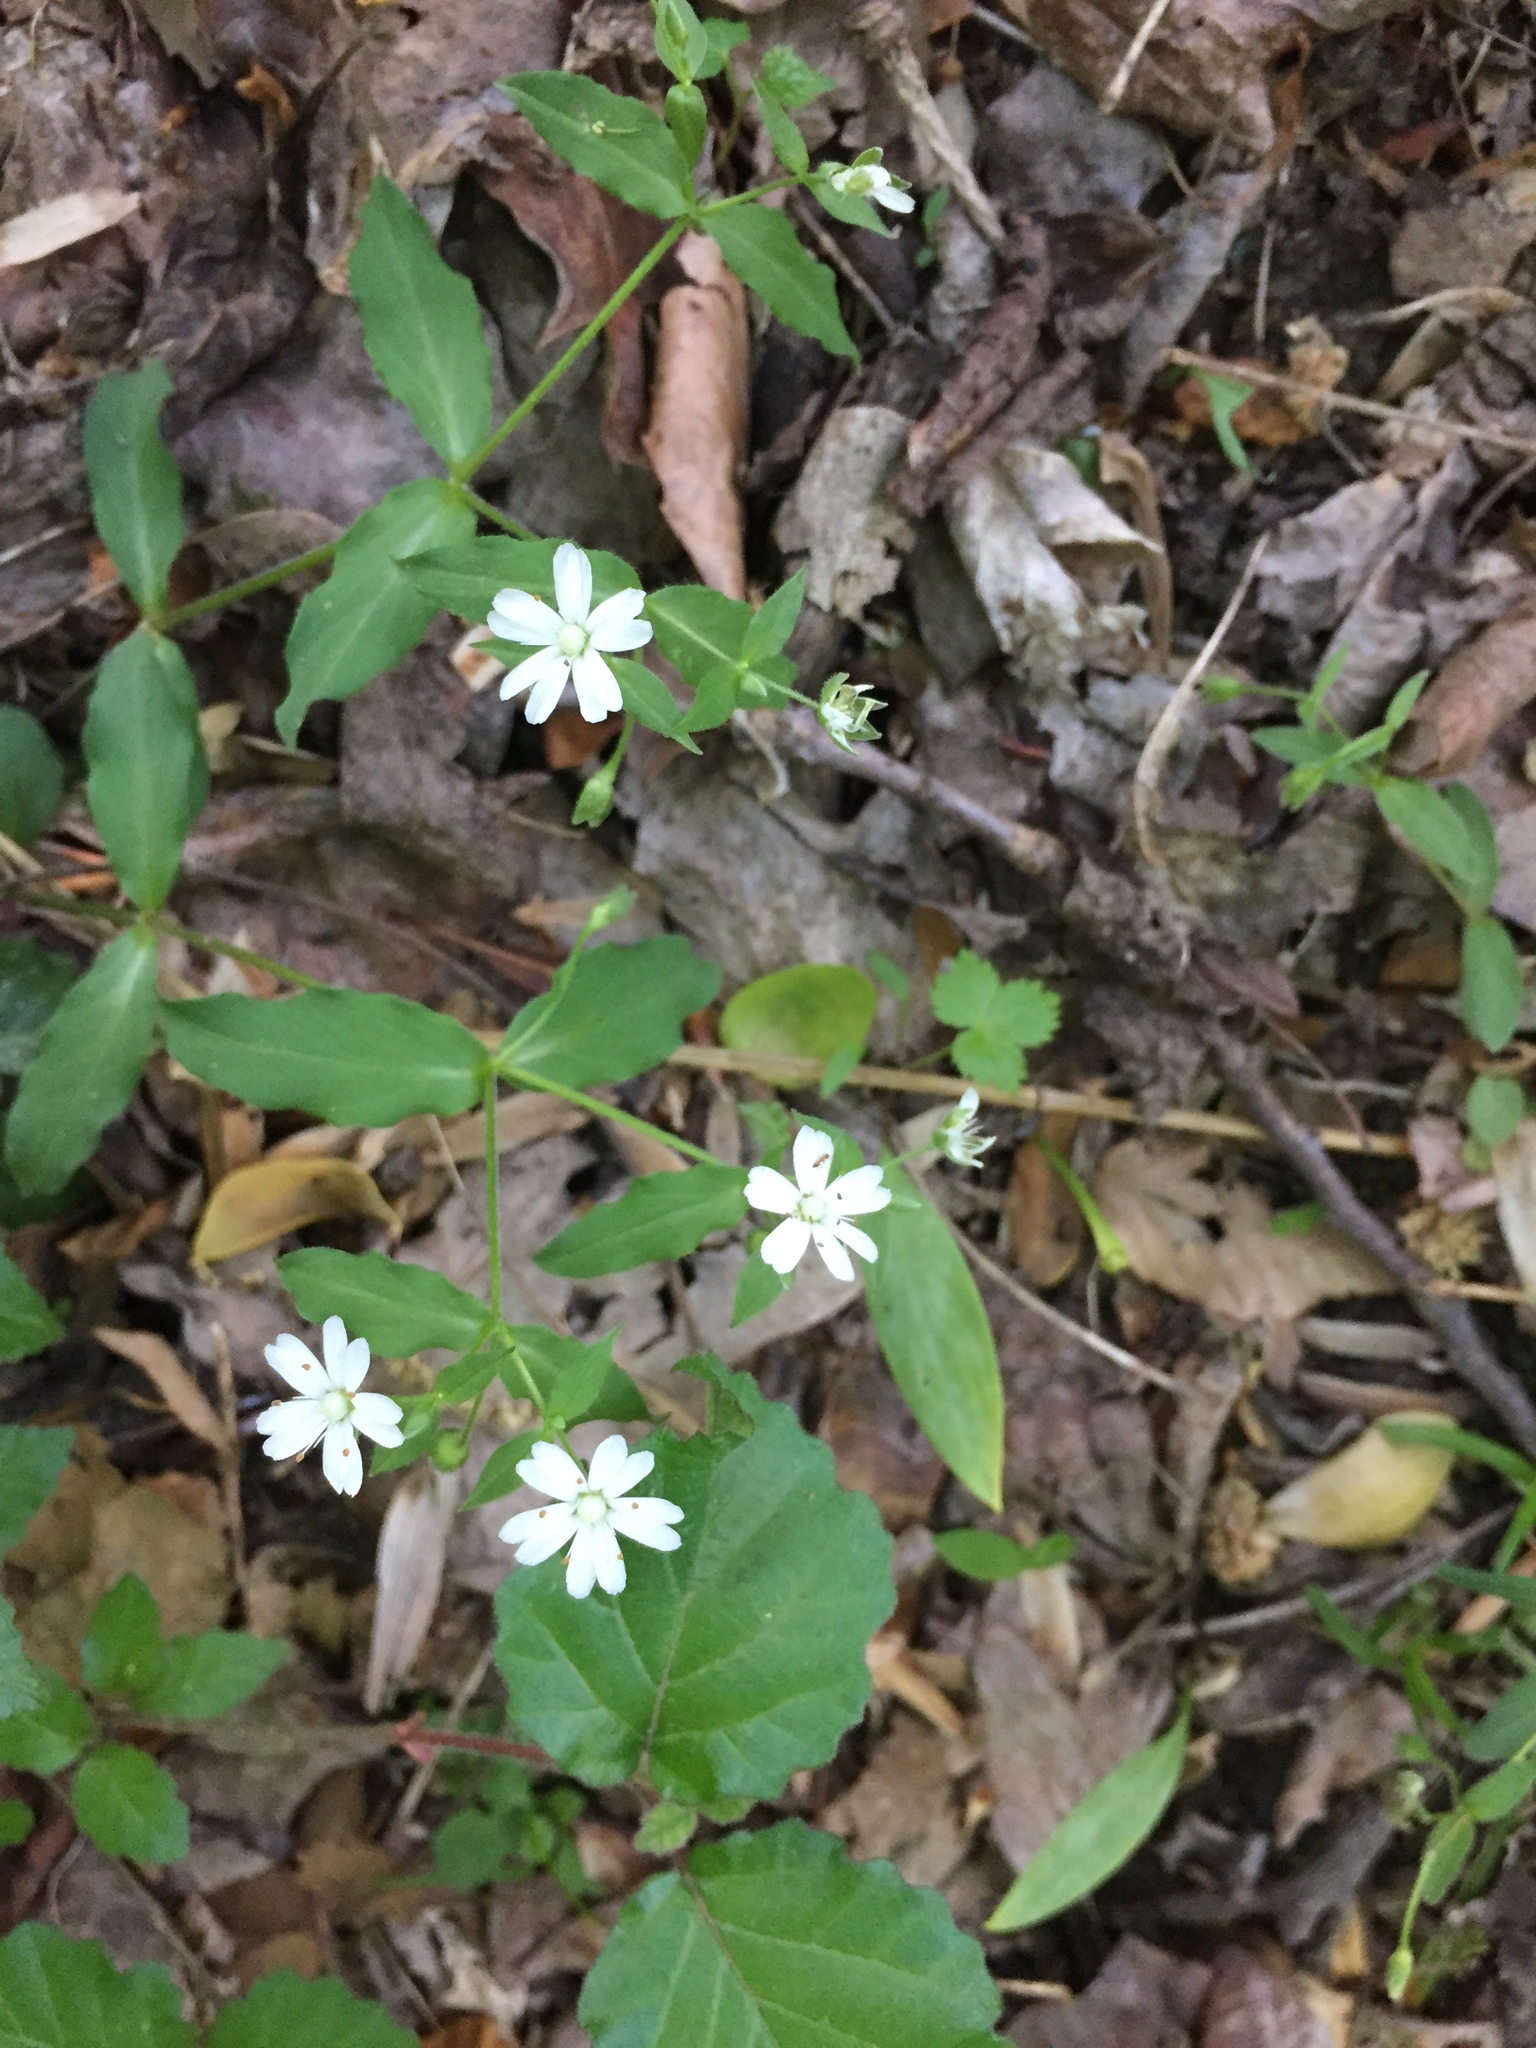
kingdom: Plantae
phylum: Tracheophyta
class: Magnoliopsida
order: Caryophyllales
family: Caryophyllaceae
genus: Stellaria
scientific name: Stellaria pubera
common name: Star chickweed
